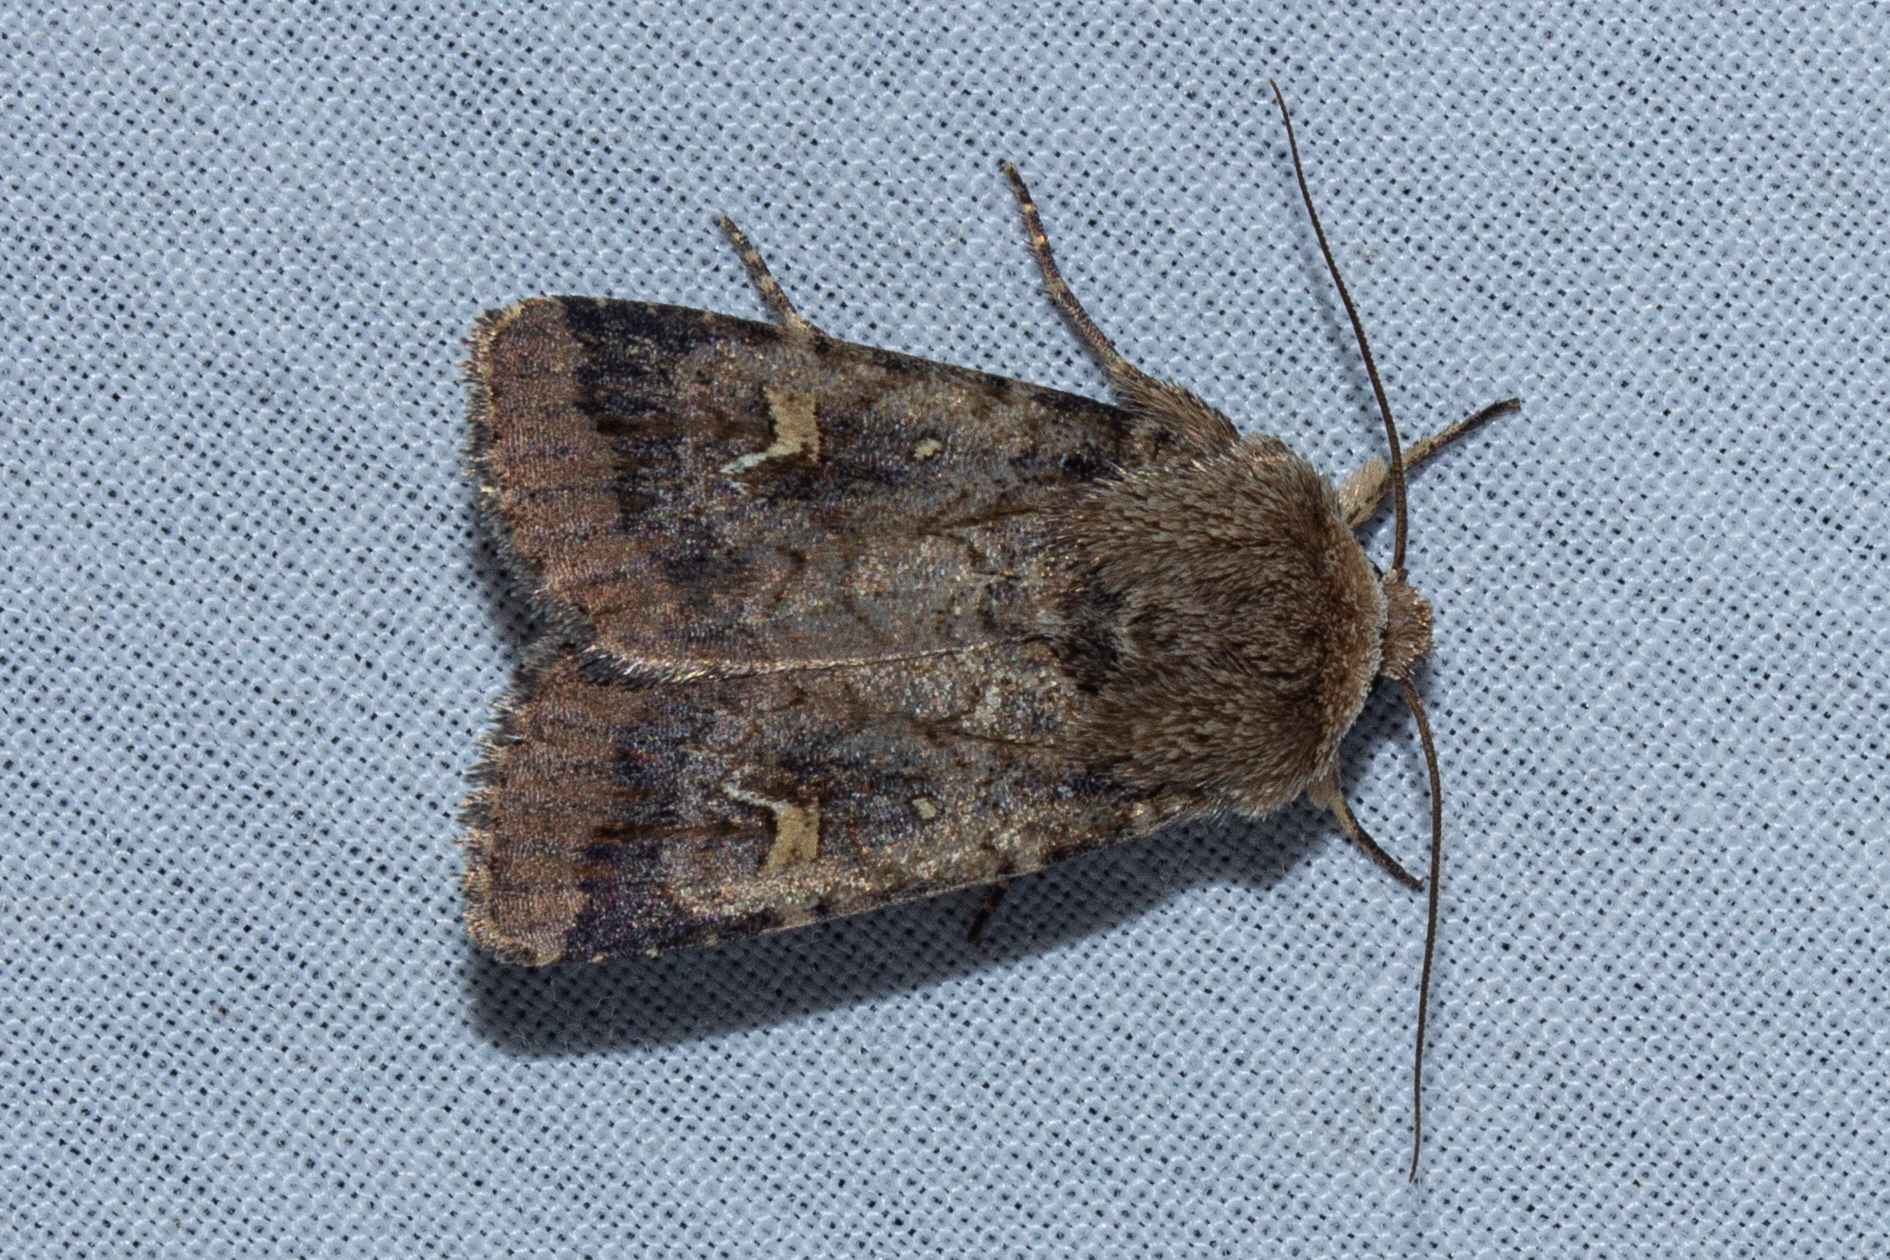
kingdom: Animalia
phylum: Arthropoda
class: Insecta
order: Lepidoptera
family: Noctuidae
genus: Proteuxoa
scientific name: Proteuxoa tetronycha
